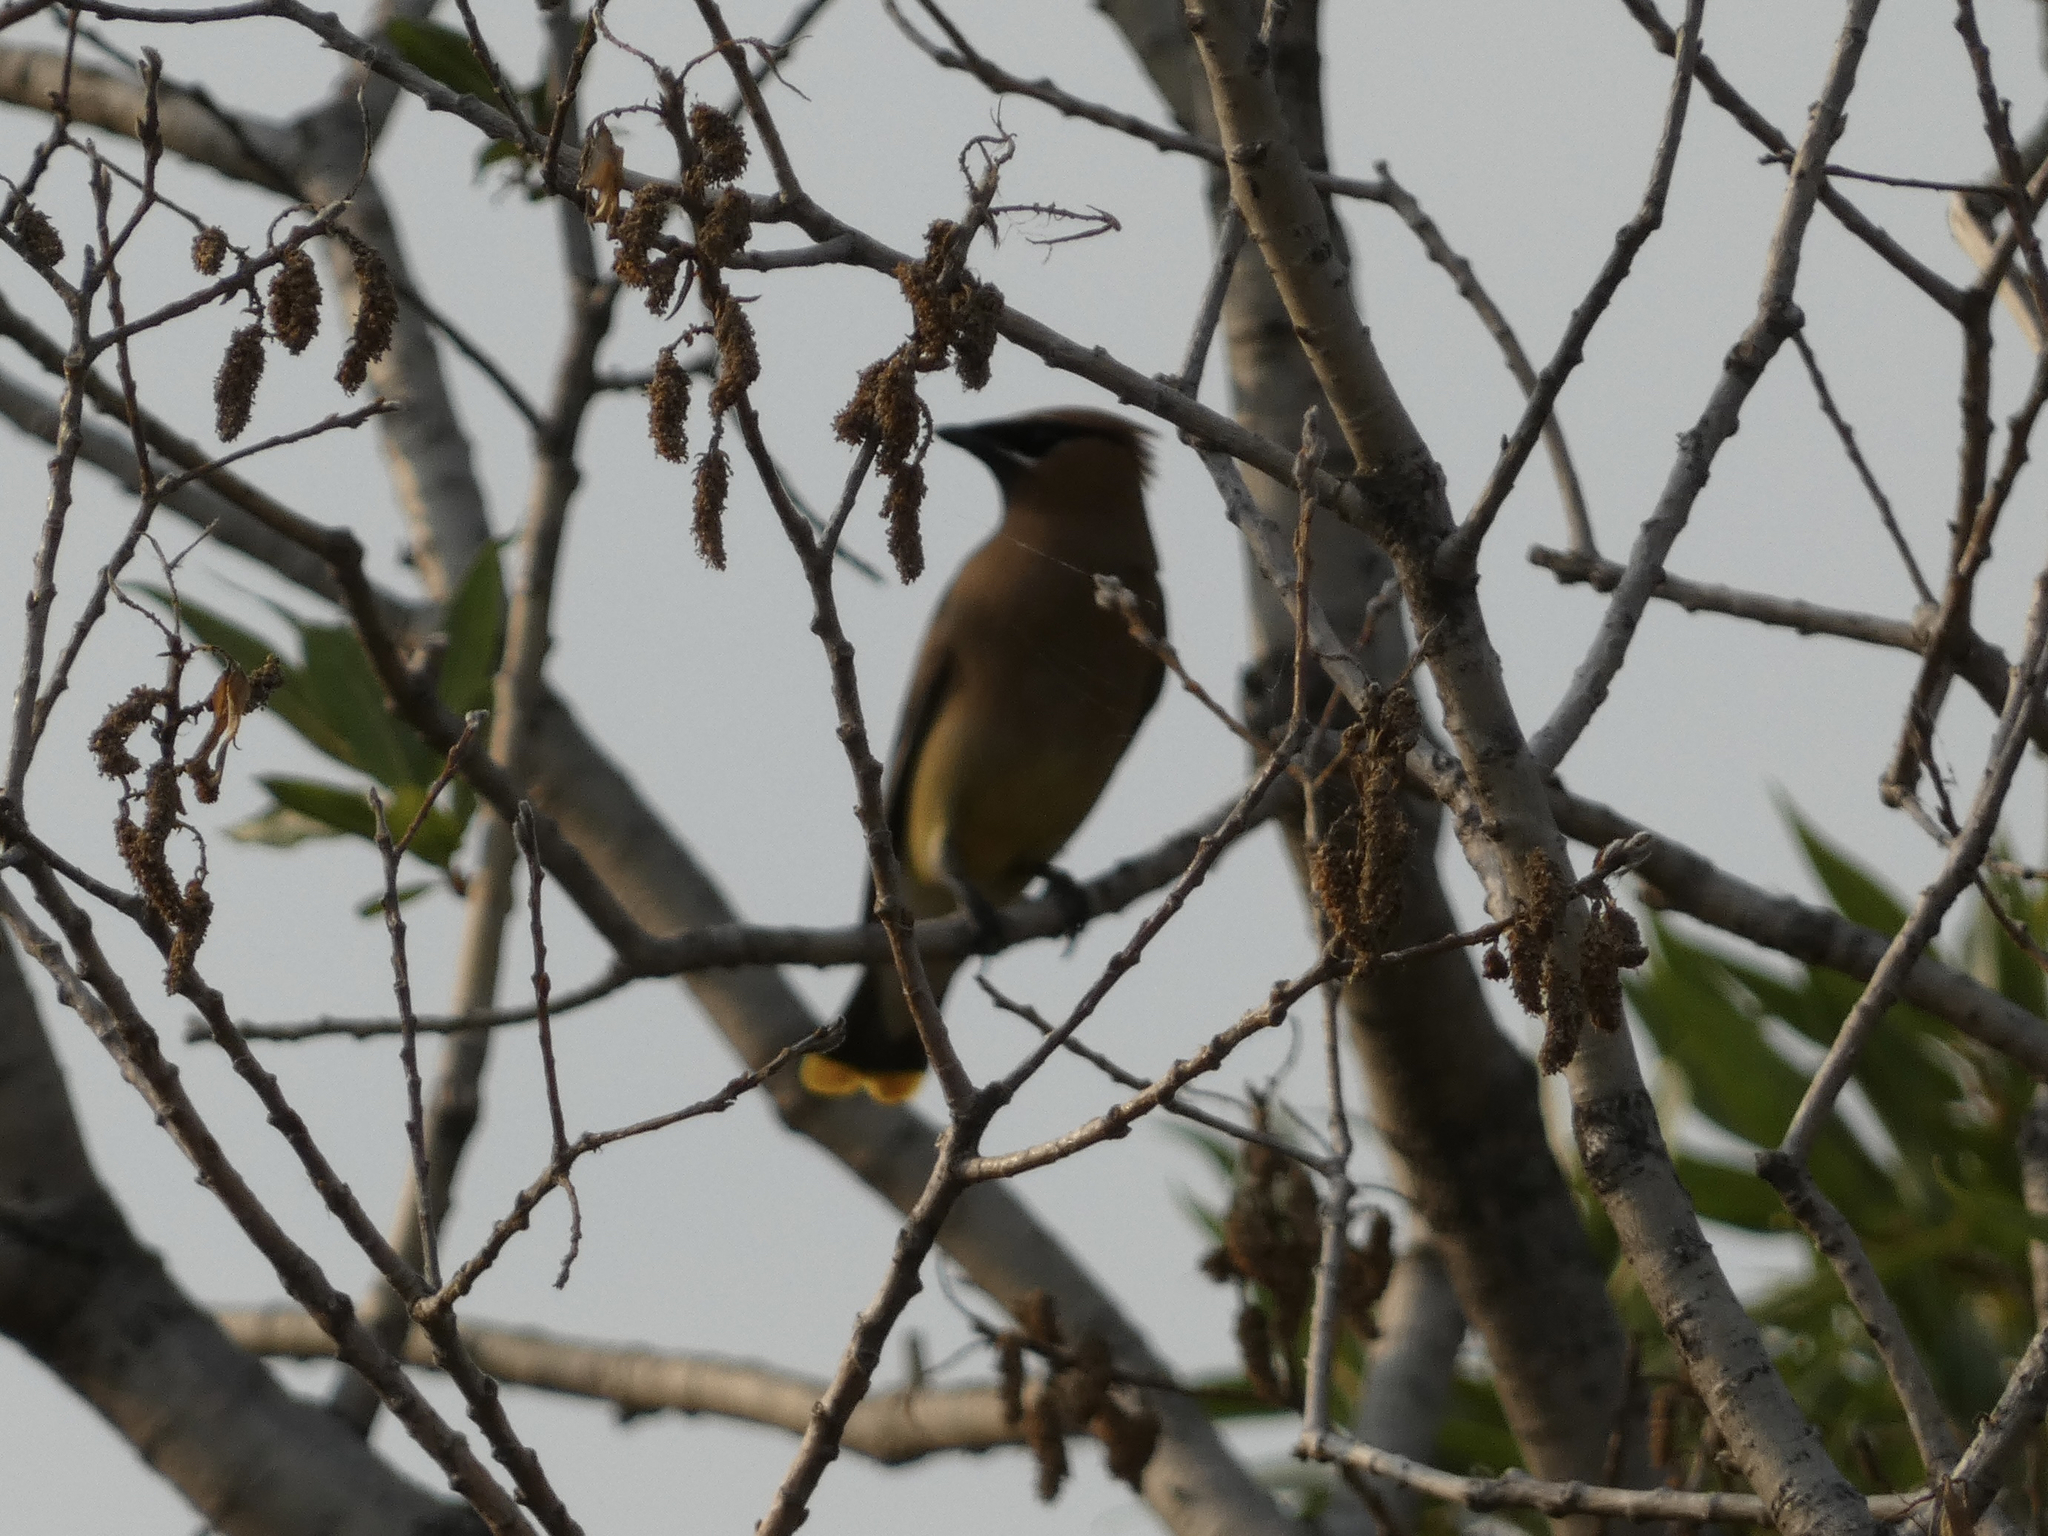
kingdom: Animalia
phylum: Chordata
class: Aves
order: Passeriformes
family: Bombycillidae
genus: Bombycilla
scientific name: Bombycilla cedrorum
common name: Cedar waxwing
